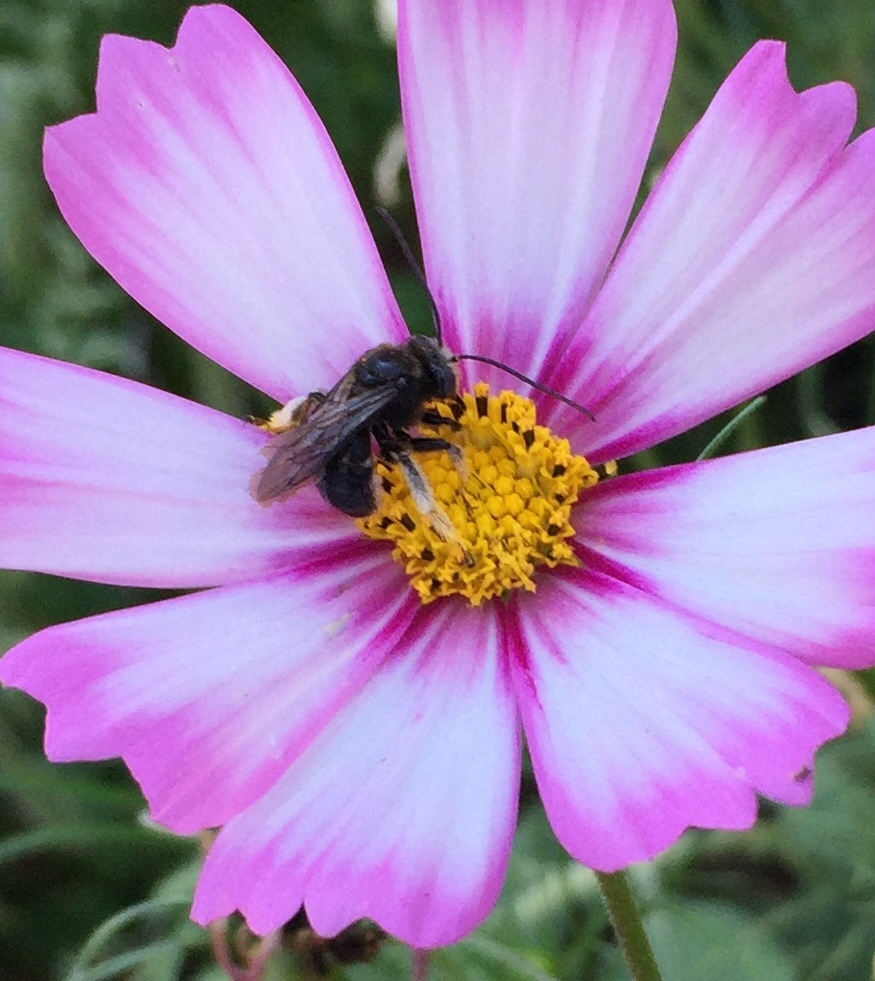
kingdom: Animalia
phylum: Arthropoda
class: Insecta
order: Hymenoptera
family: Apidae
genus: Melissodes
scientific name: Melissodes bimaculatus
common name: Two-spotted long-horned bee
